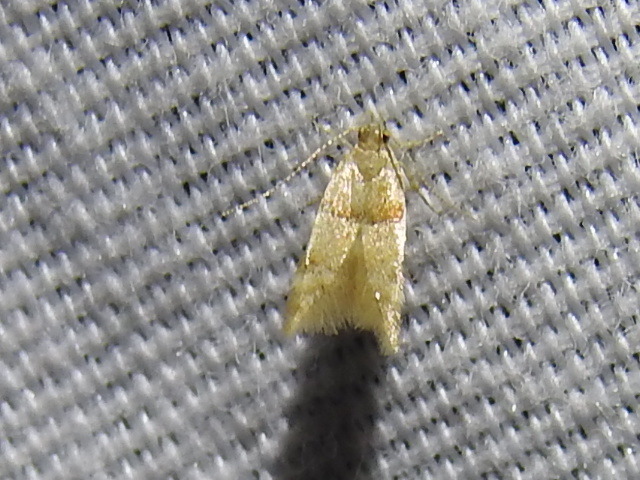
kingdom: Animalia
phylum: Arthropoda
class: Insecta
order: Lepidoptera
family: Gelechiidae
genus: Theisoa
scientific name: Theisoa constrictella
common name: Constricted twirler
